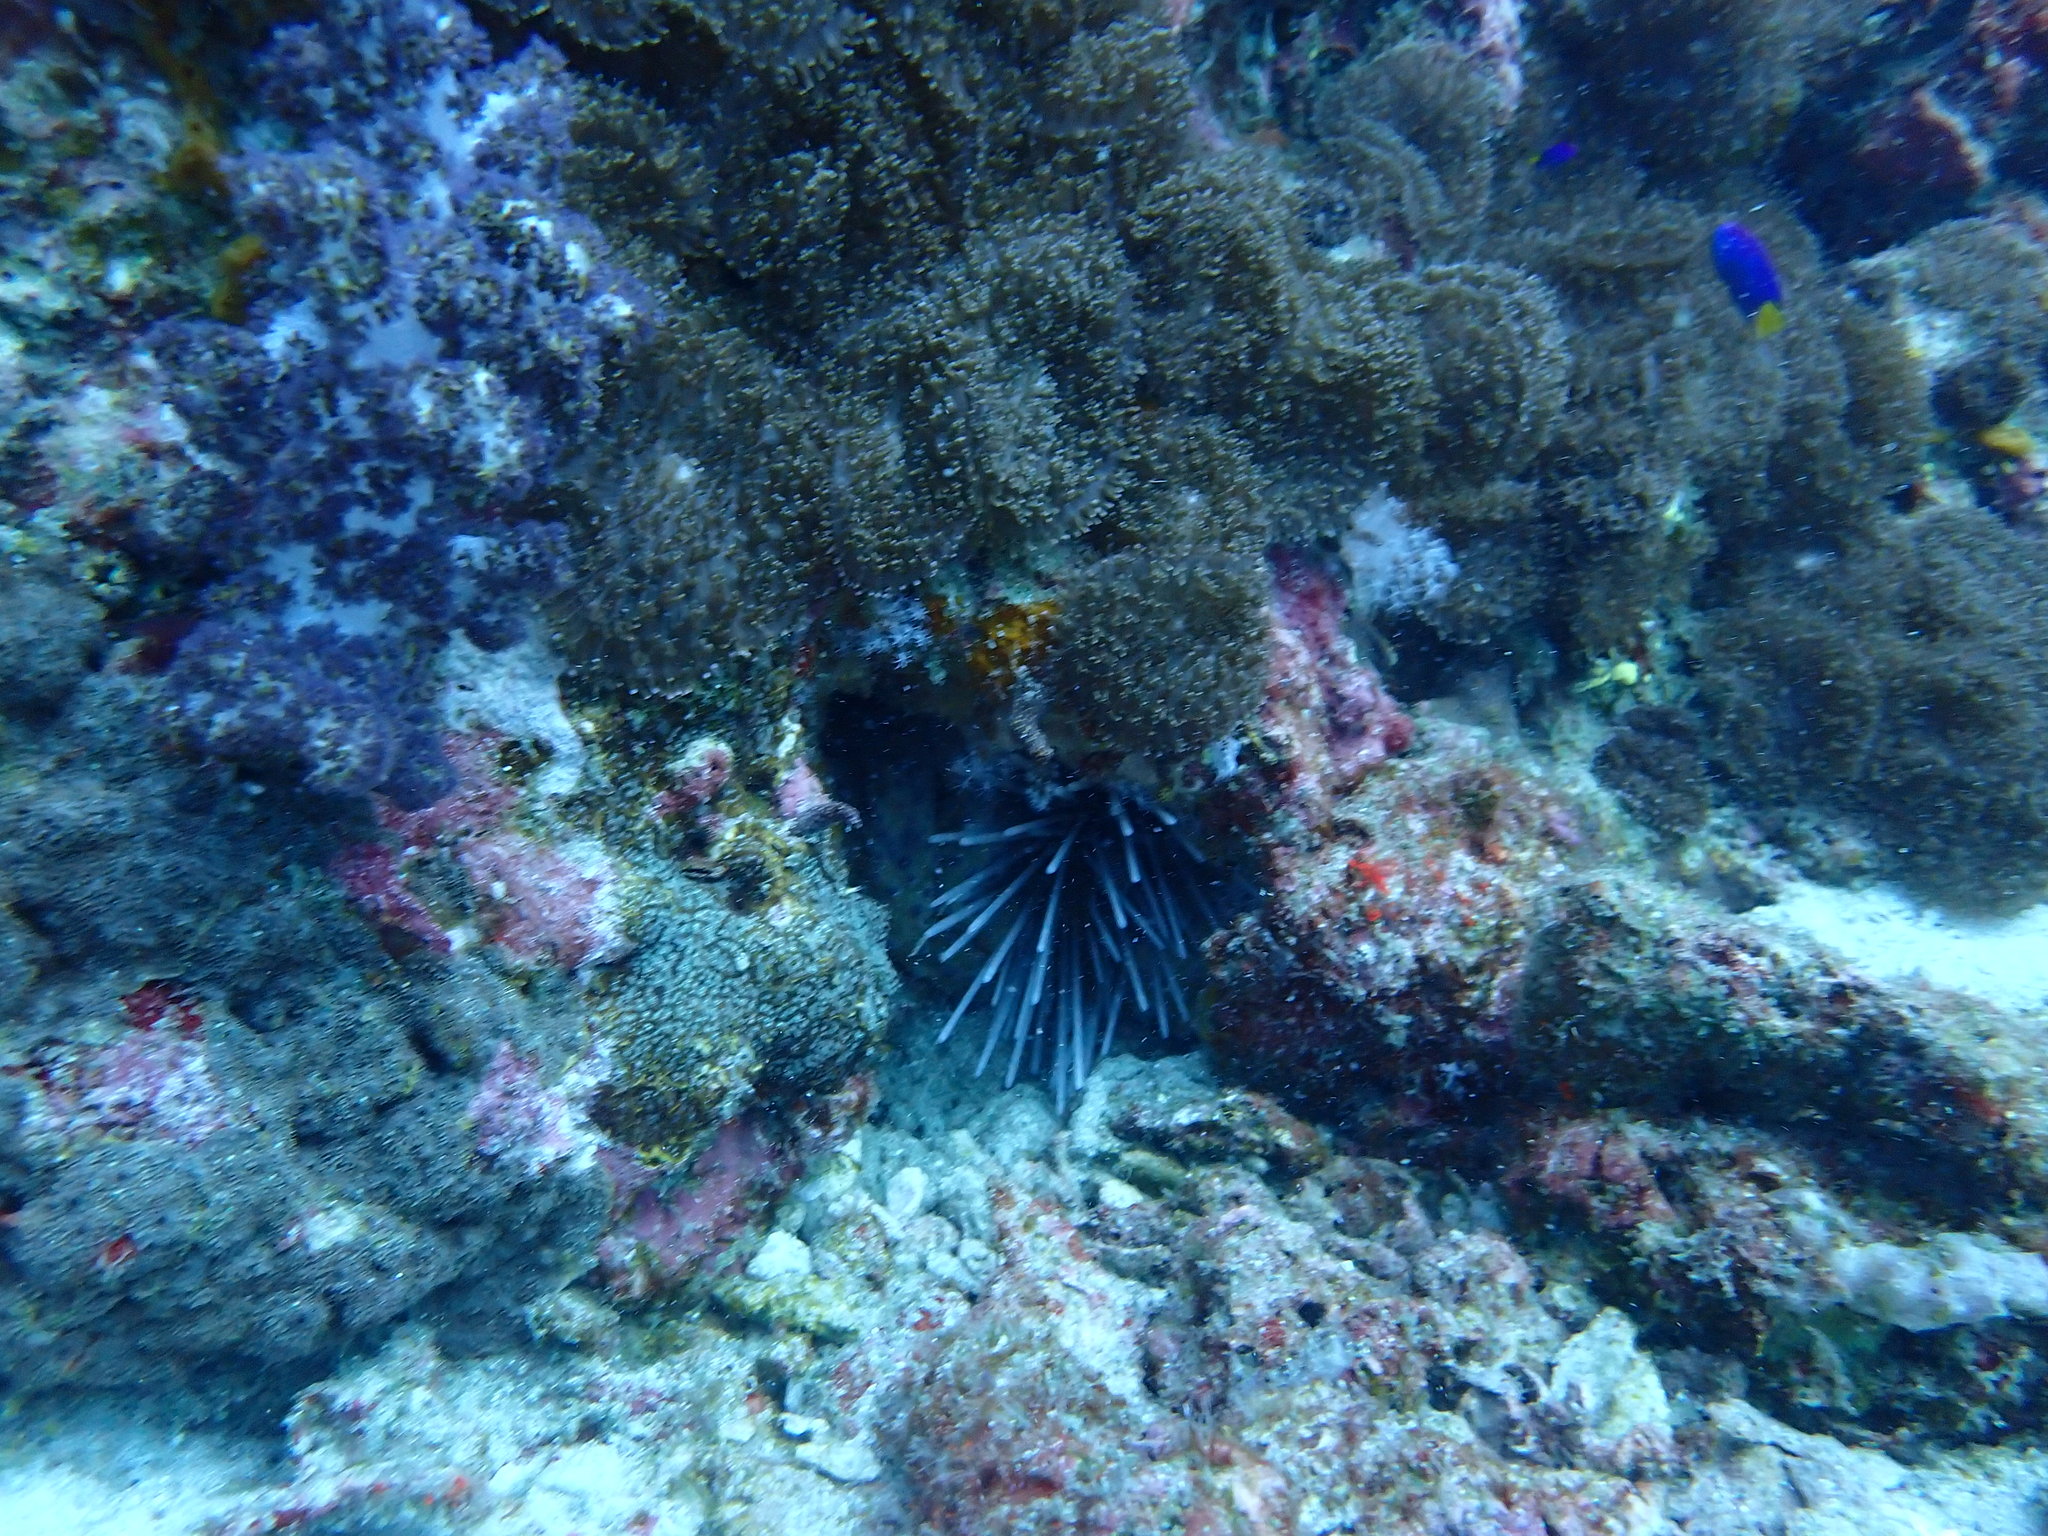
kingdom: Animalia
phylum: Cnidaria
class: Anthozoa
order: Corallimorpharia
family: Discosomidae
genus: Rhodactis
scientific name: Rhodactis rhodostoma
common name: Red-mouth mushroom anemone
